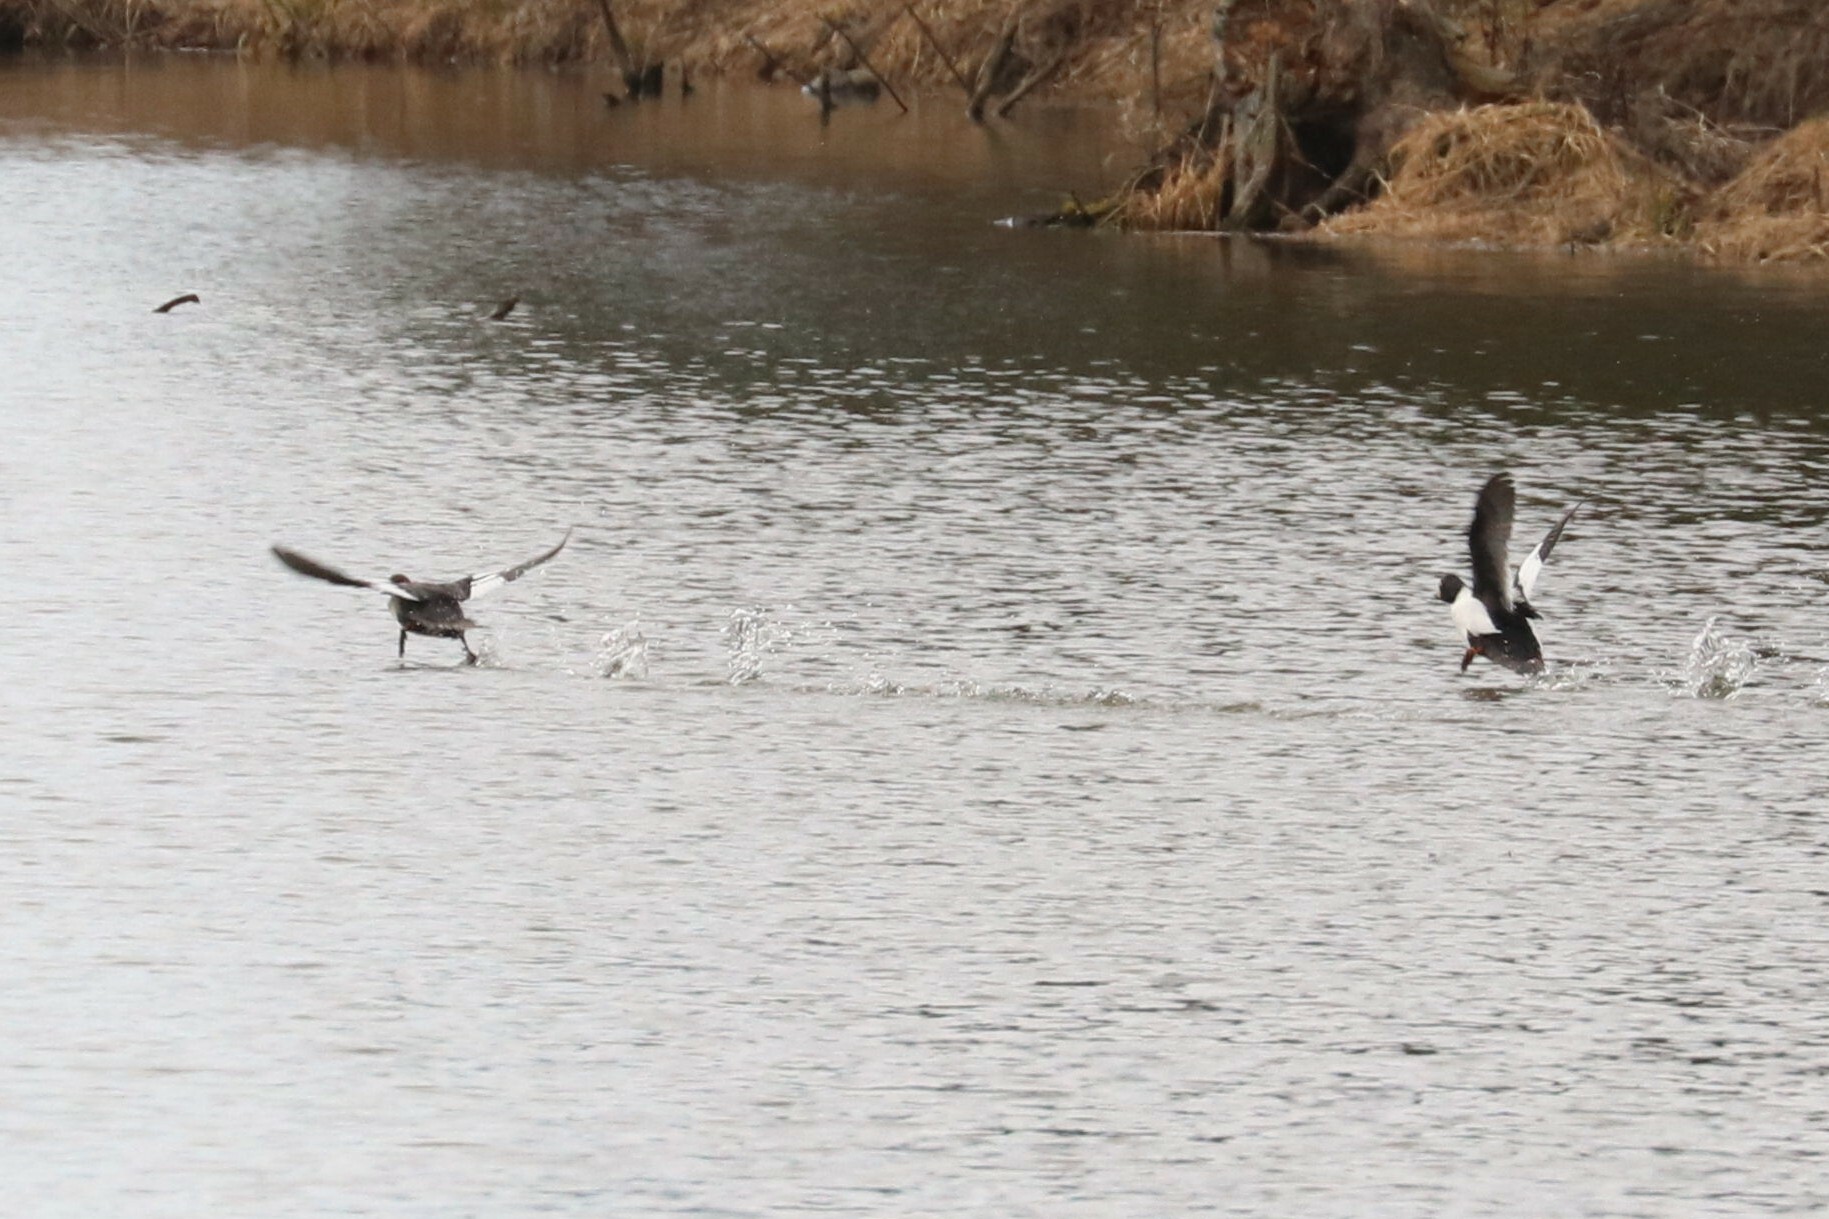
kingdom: Animalia
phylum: Chordata
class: Aves
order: Anseriformes
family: Anatidae
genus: Bucephala
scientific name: Bucephala clangula
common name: Common goldeneye
